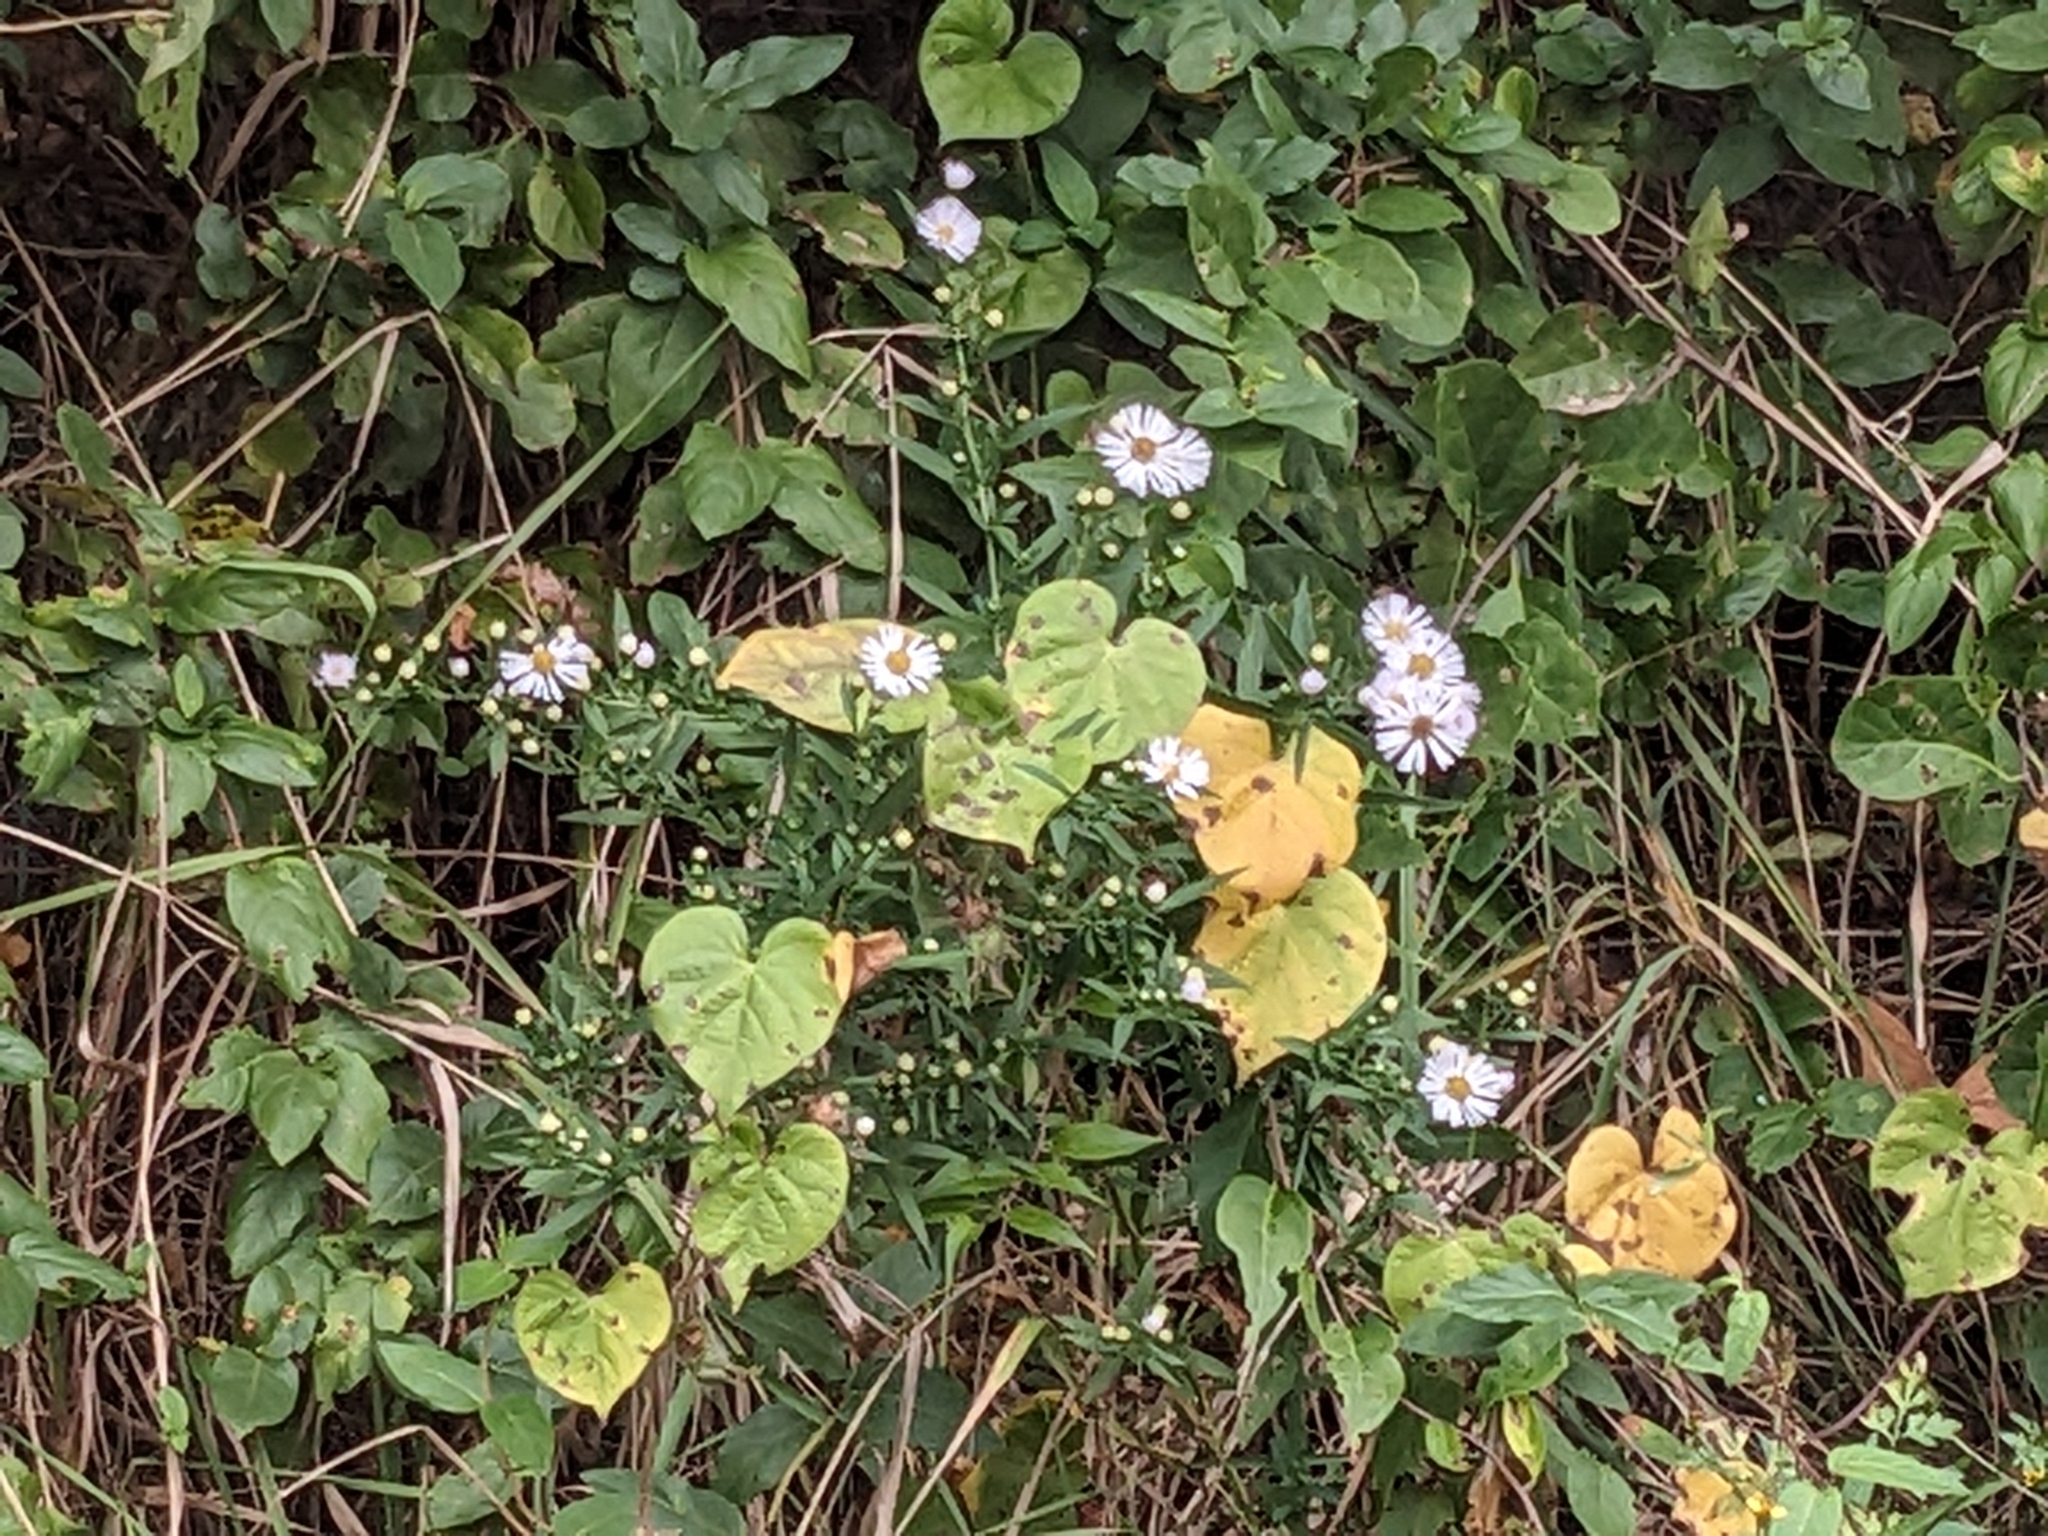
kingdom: Plantae
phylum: Tracheophyta
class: Magnoliopsida
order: Asterales
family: Asteraceae
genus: Symphyotrichum
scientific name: Symphyotrichum cordifolium
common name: Beeweed
